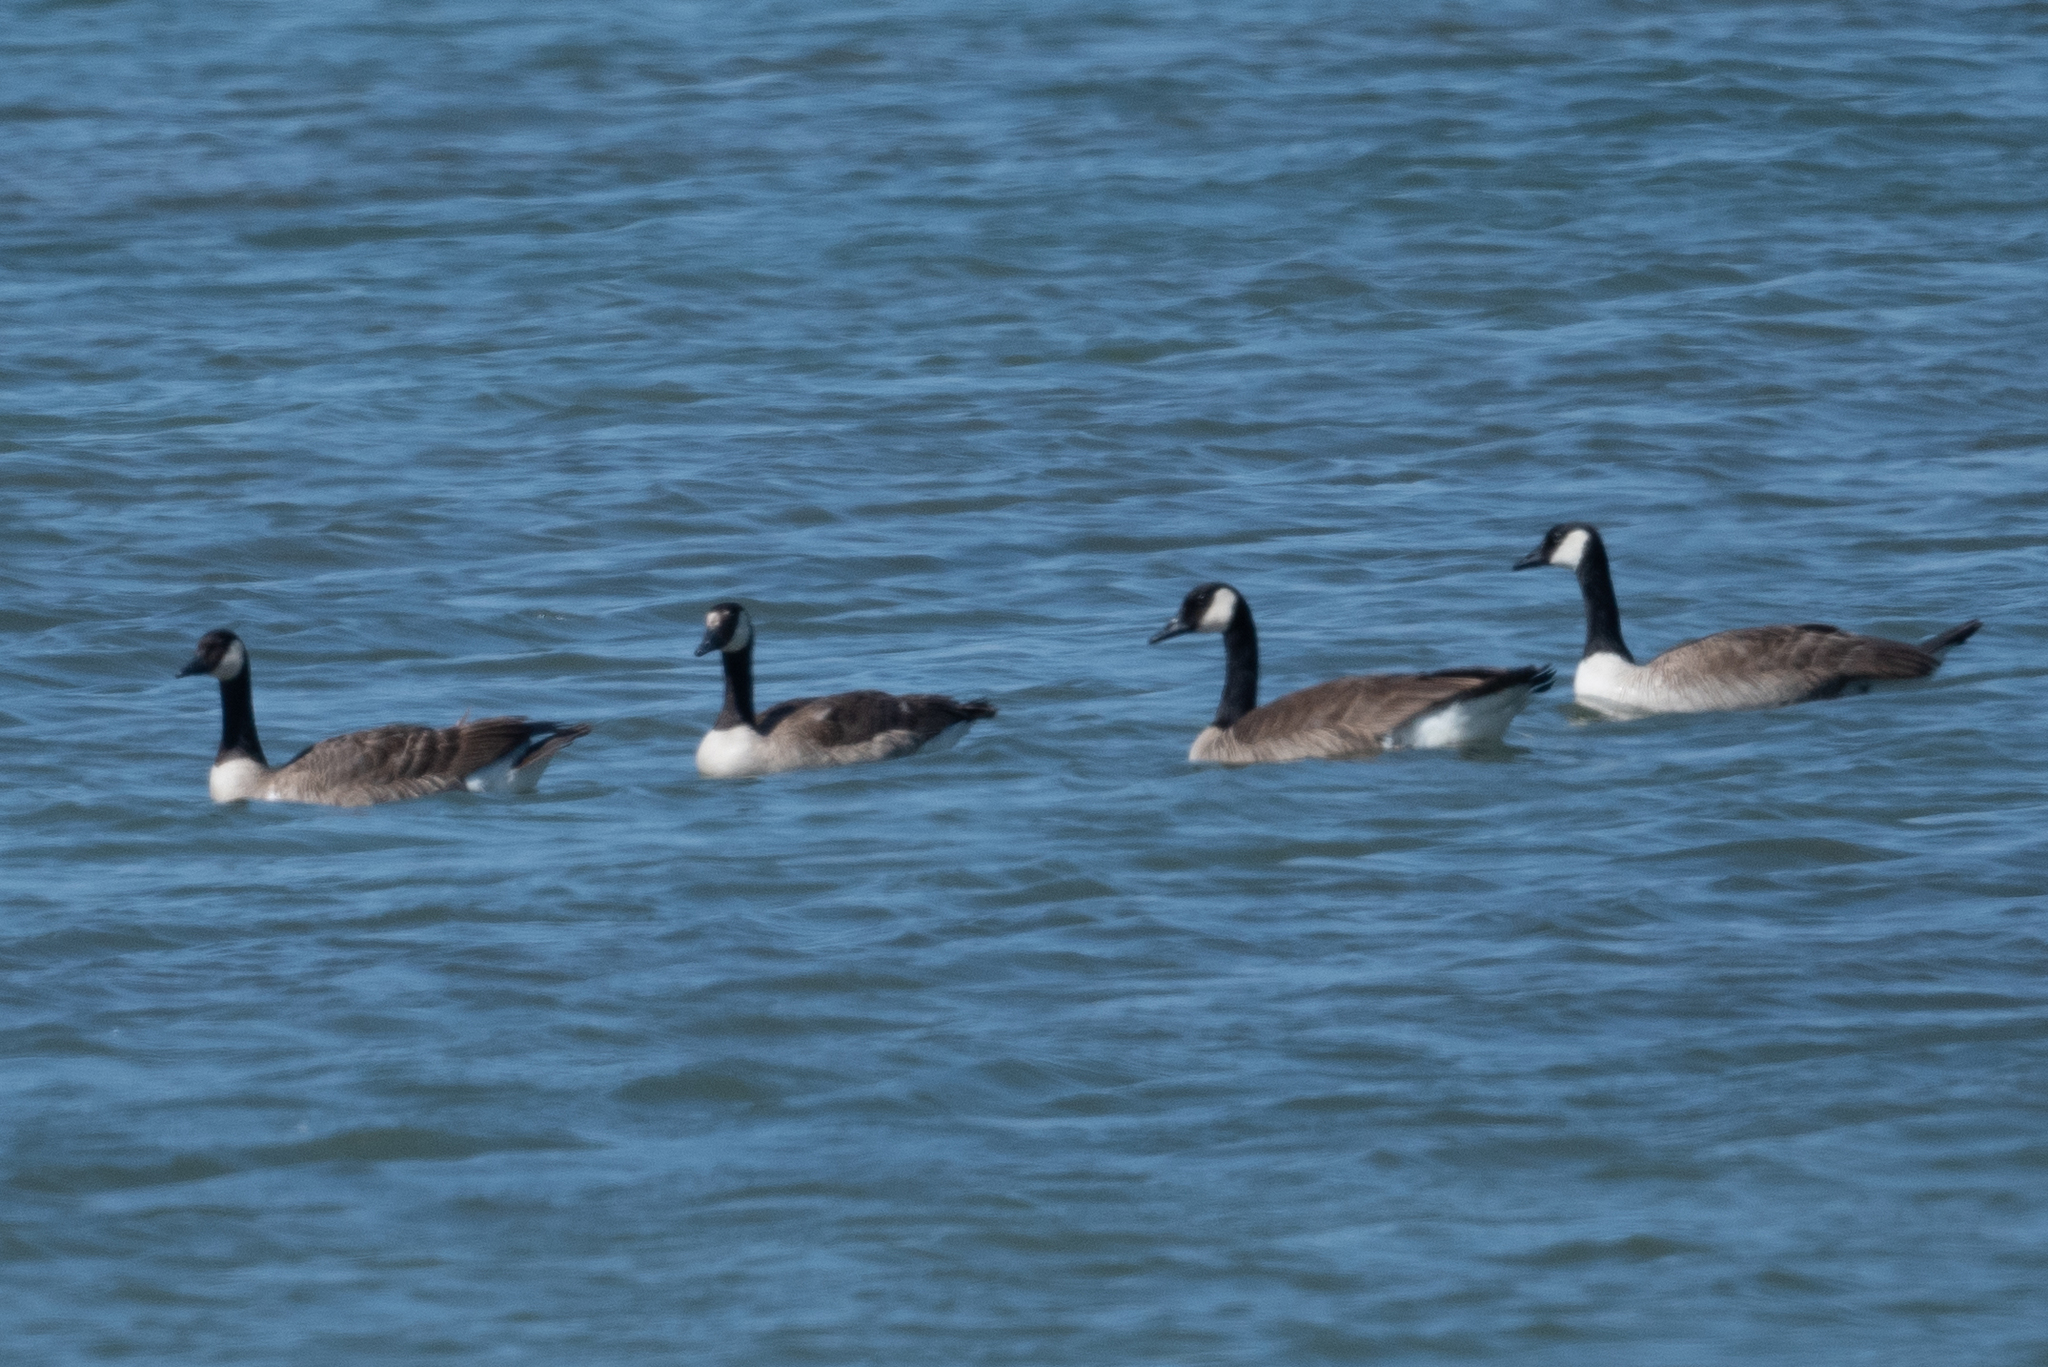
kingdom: Animalia
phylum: Chordata
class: Aves
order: Anseriformes
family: Anatidae
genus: Branta
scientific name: Branta canadensis
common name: Canada goose
